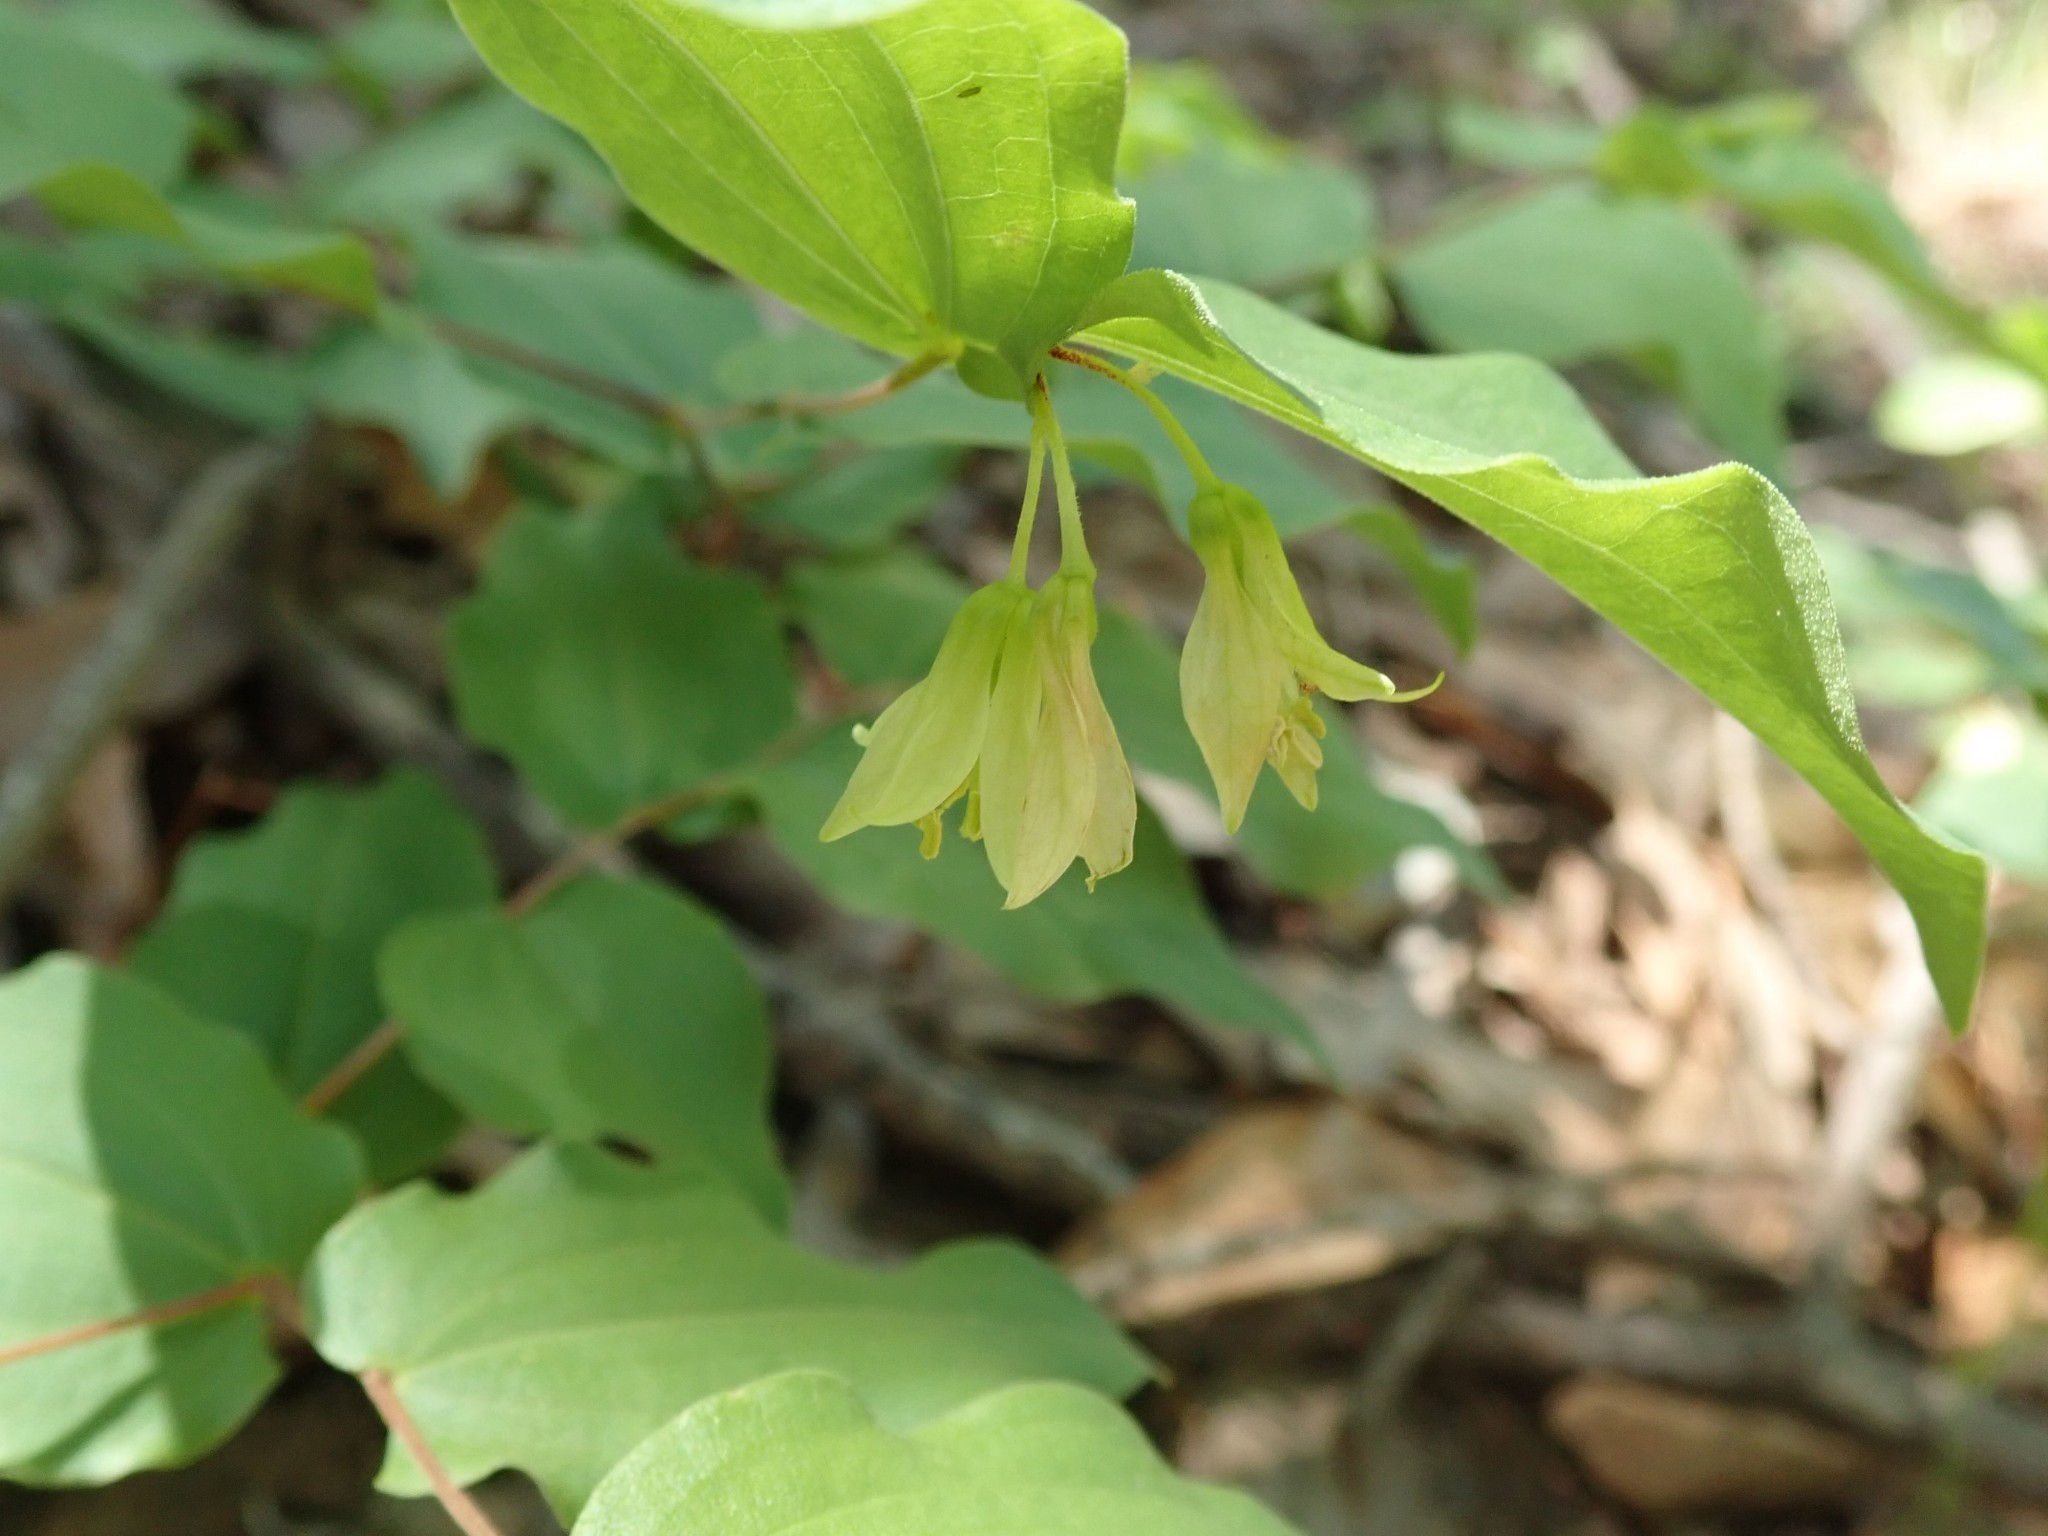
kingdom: Plantae
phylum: Tracheophyta
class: Liliopsida
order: Liliales
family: Liliaceae
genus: Prosartes
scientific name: Prosartes hookeri
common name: Fairy-bells
